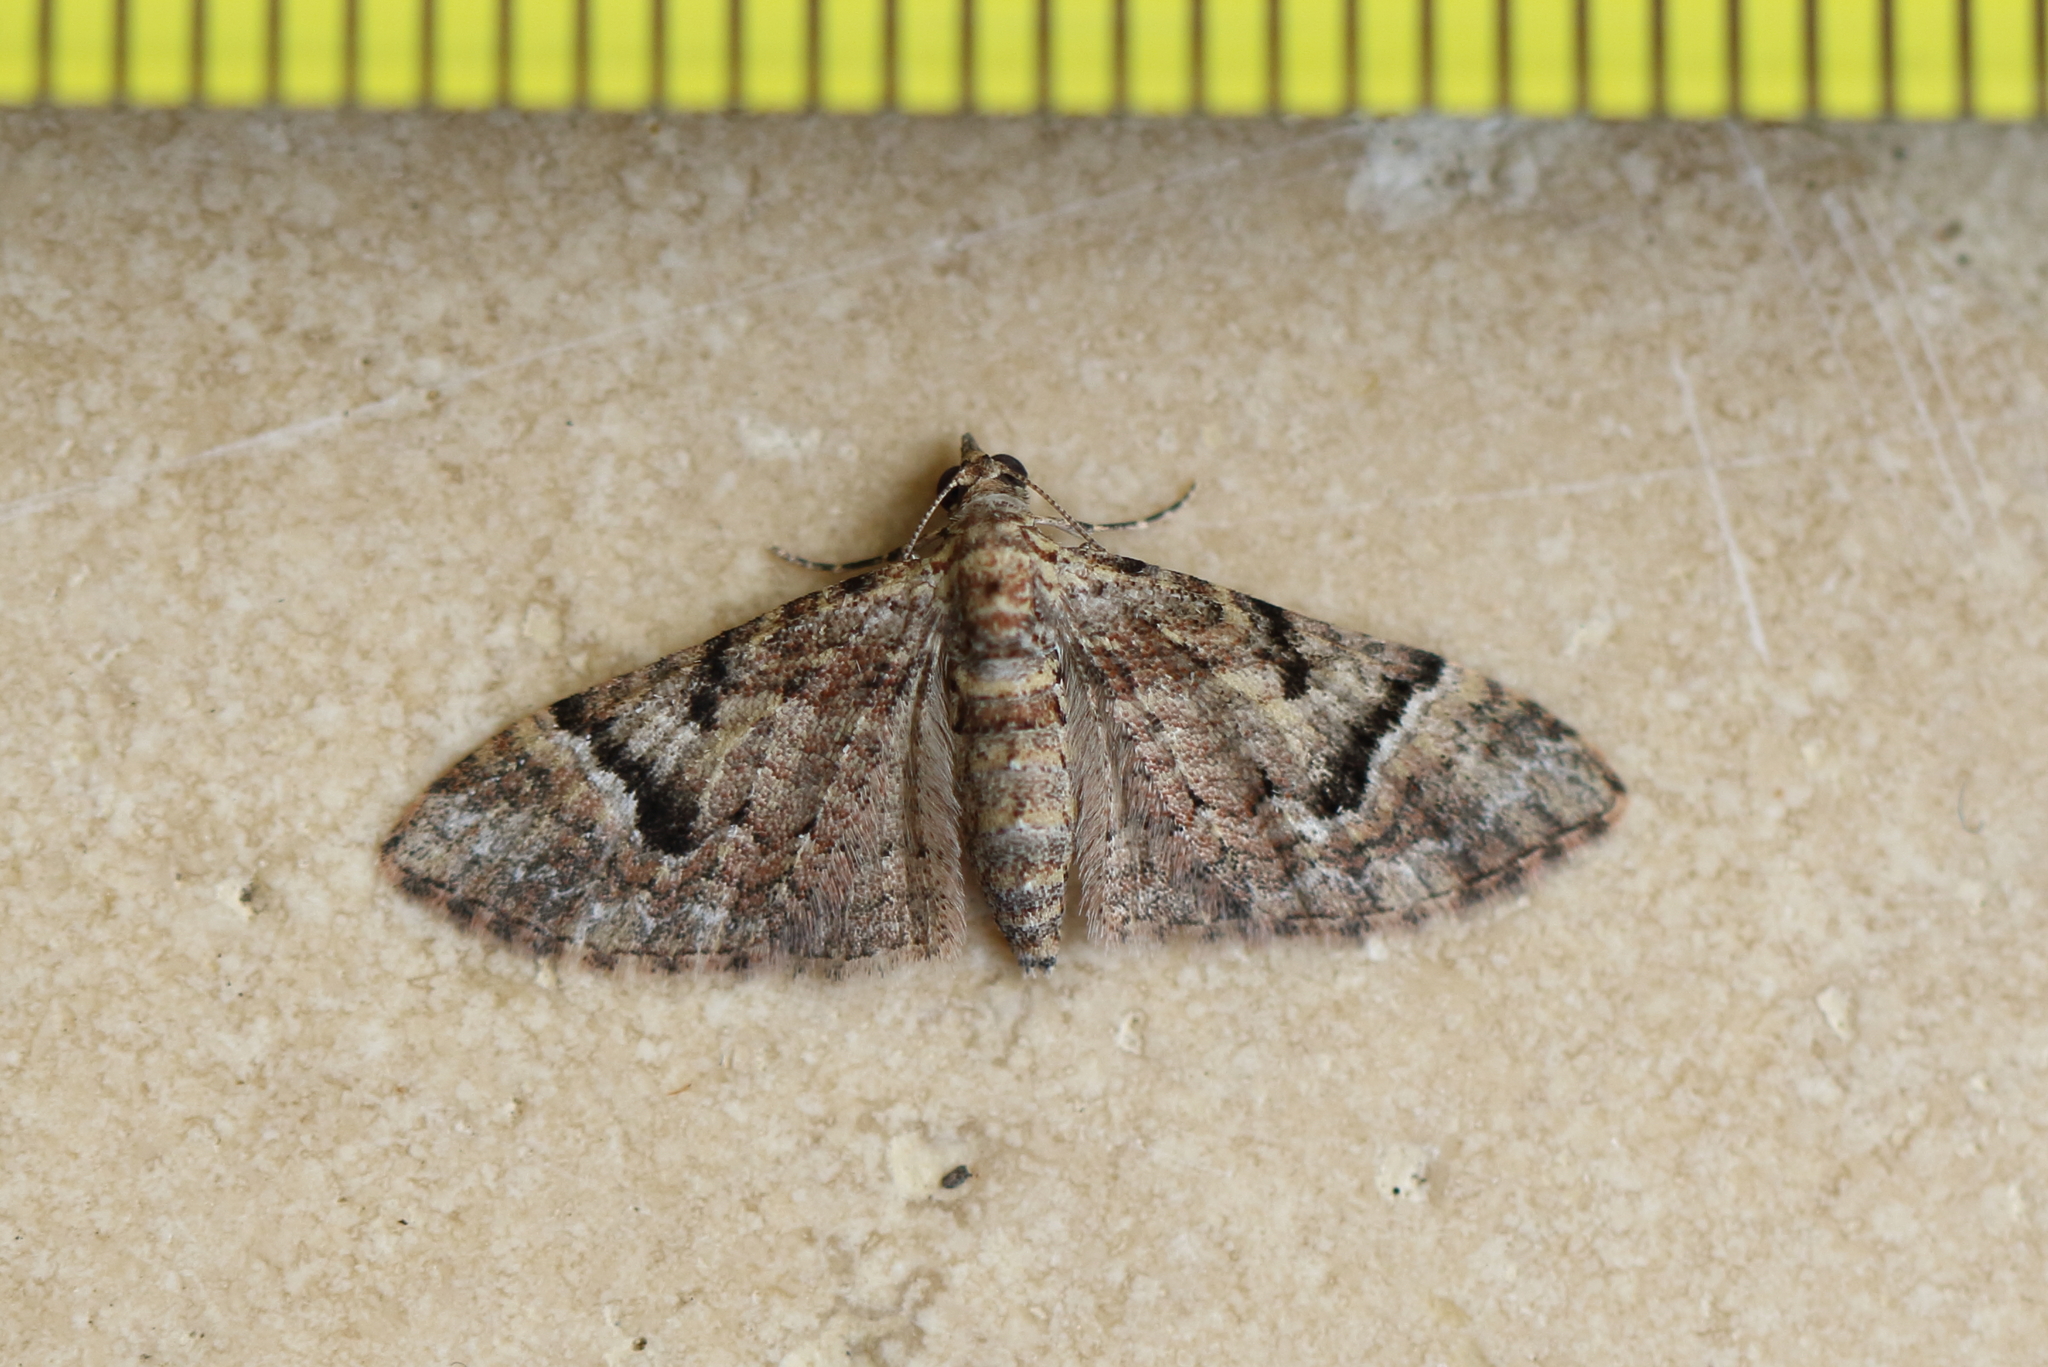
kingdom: Animalia
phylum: Arthropoda
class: Insecta
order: Lepidoptera
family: Geometridae
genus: Mnesiloba
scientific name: Mnesiloba eupitheciata
